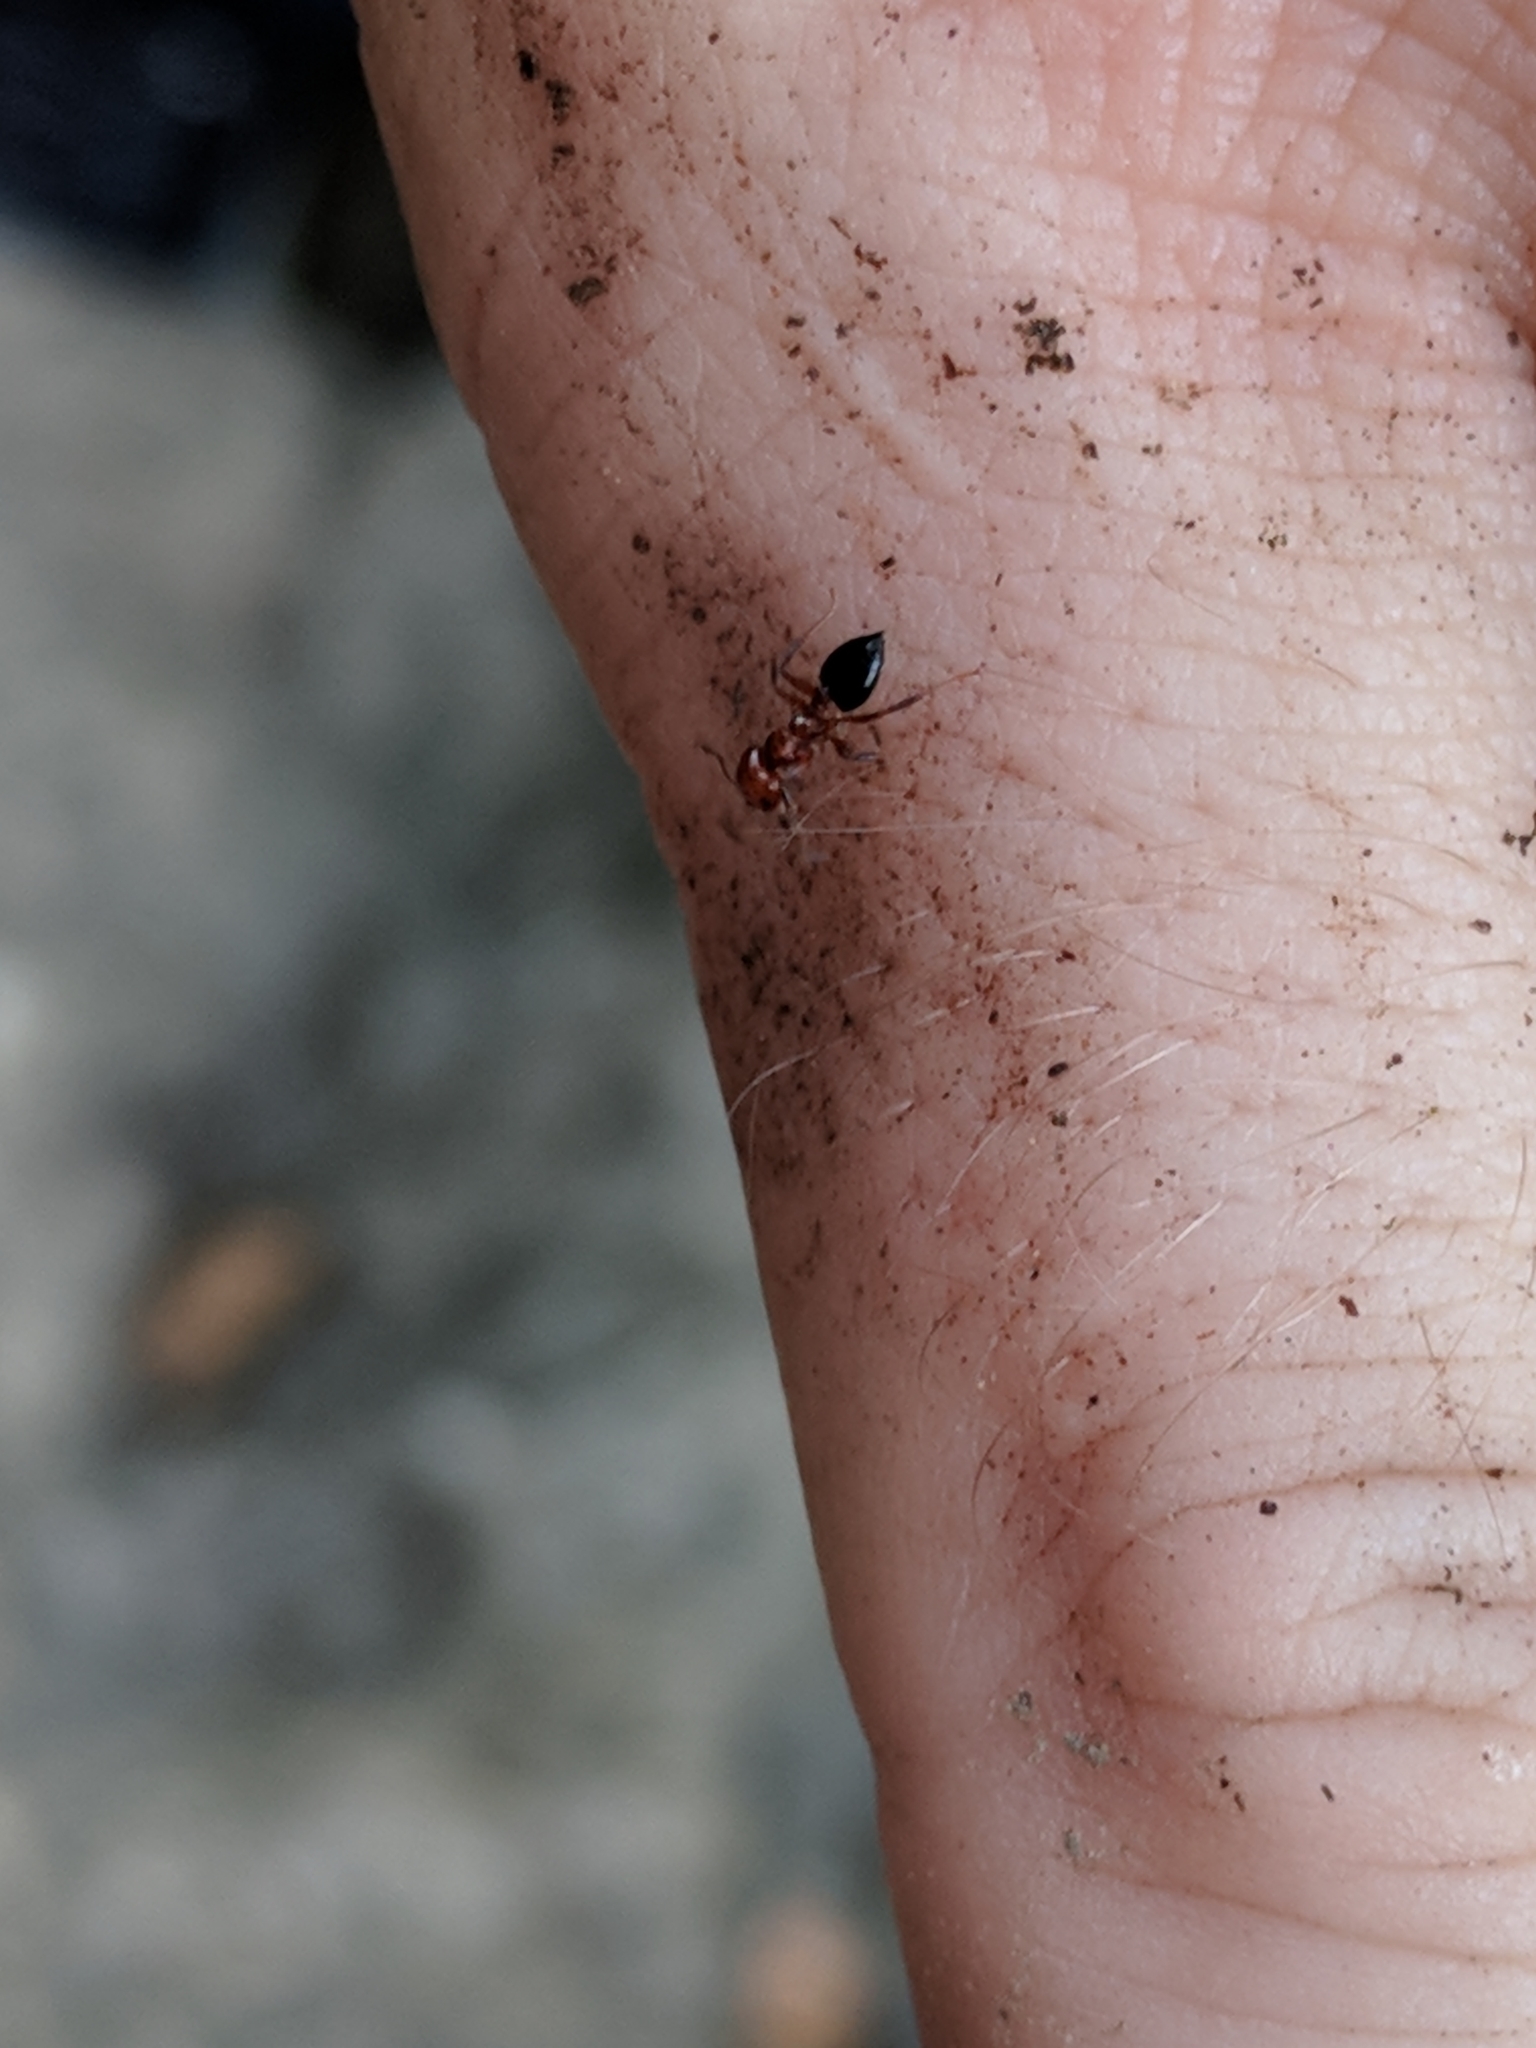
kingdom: Animalia
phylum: Arthropoda
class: Insecta
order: Hymenoptera
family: Formicidae
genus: Crematogaster
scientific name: Crematogaster laeviuscula
